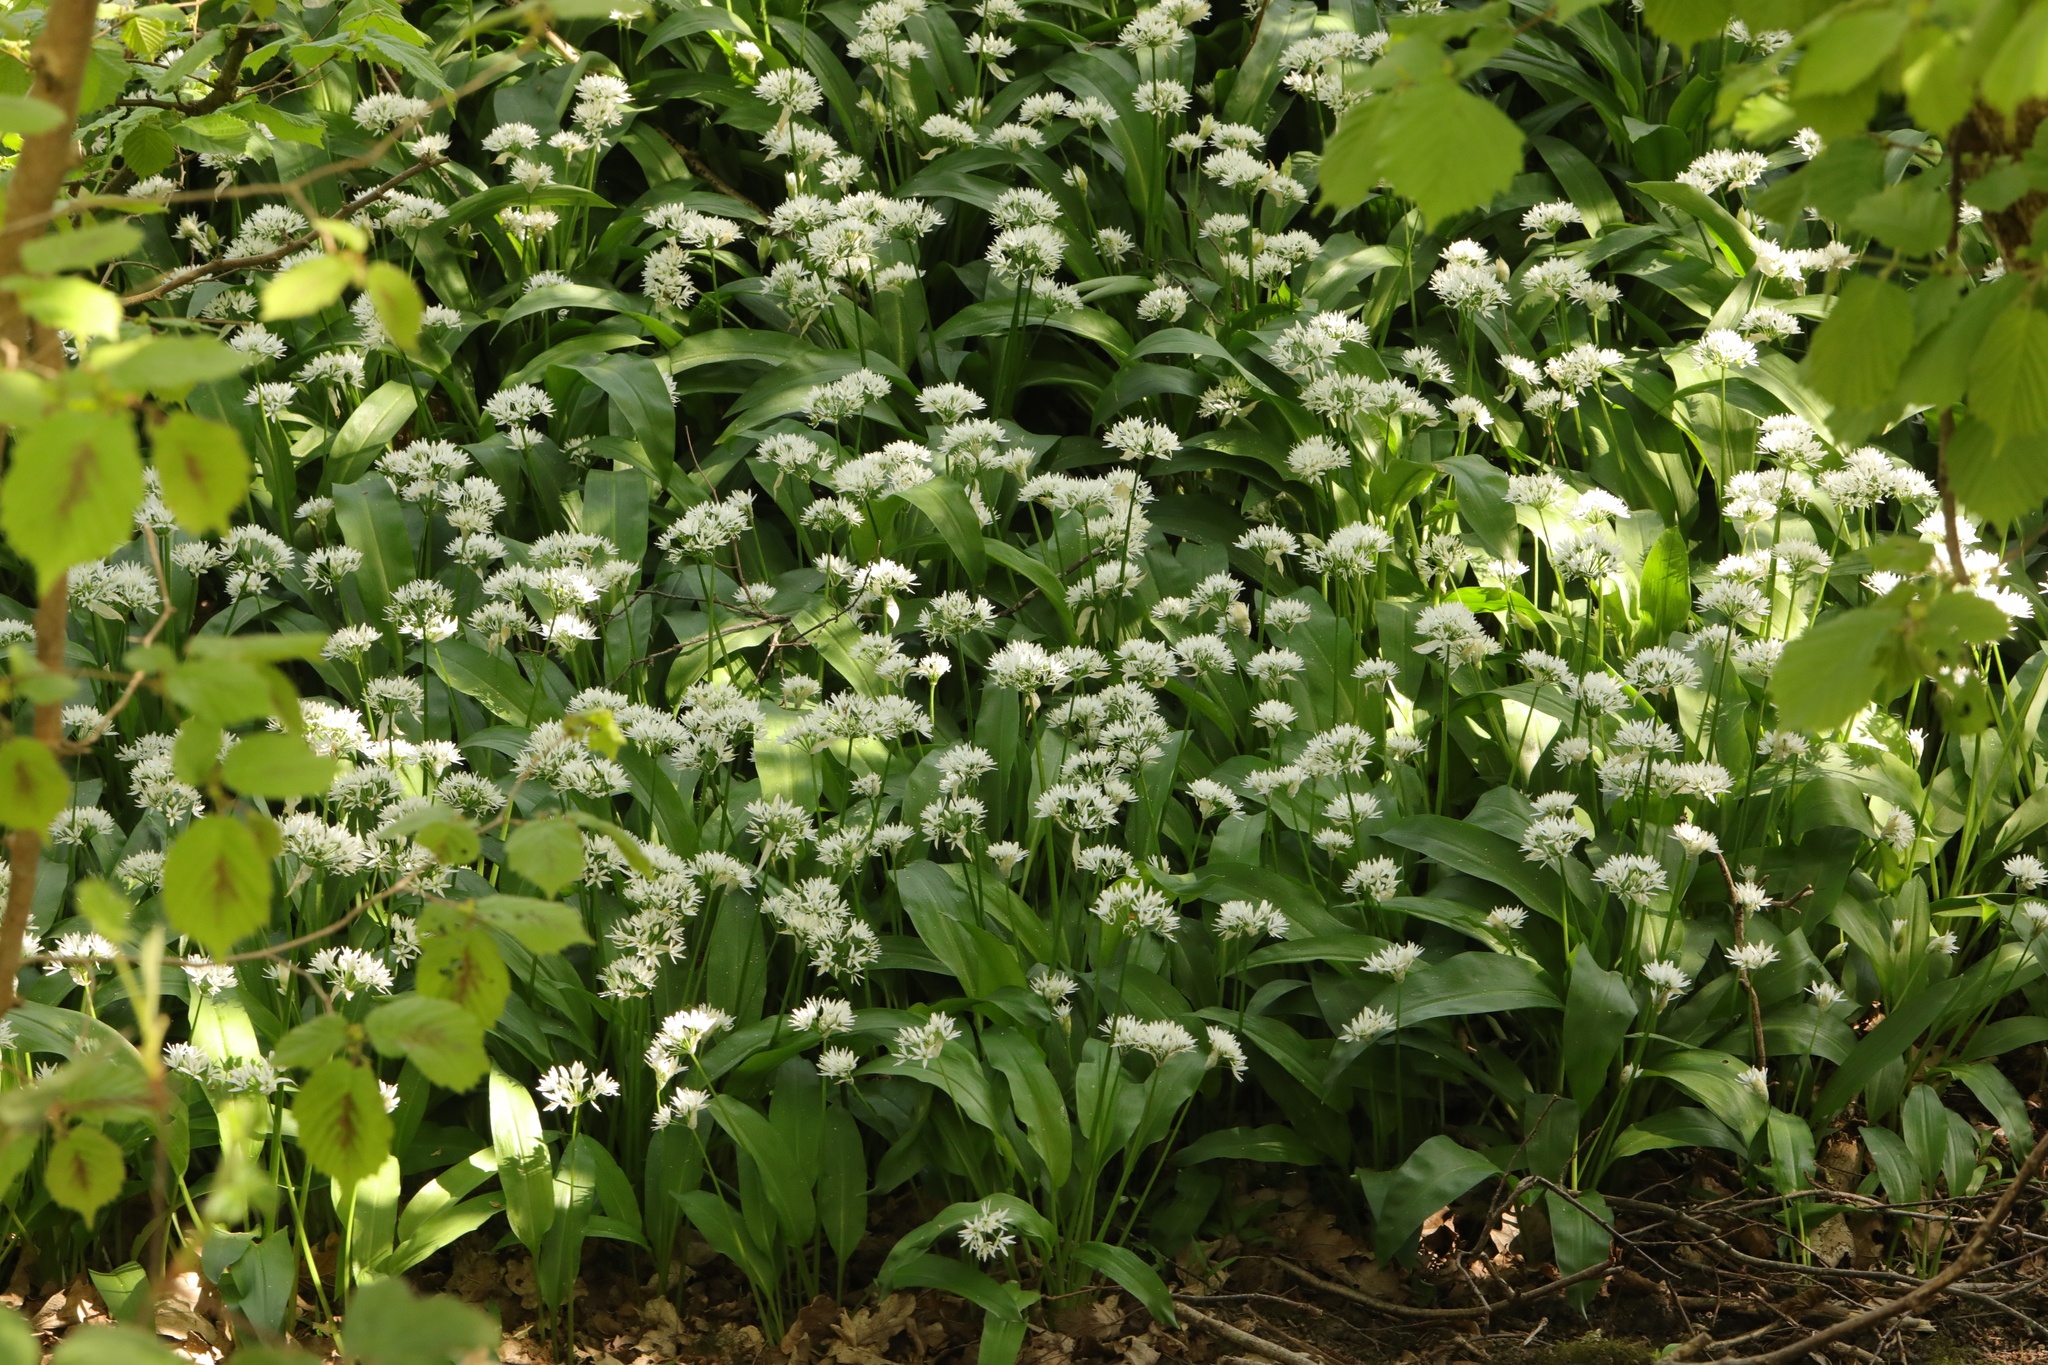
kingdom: Plantae
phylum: Tracheophyta
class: Liliopsida
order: Asparagales
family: Amaryllidaceae
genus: Allium
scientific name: Allium ursinum
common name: Ramsons
